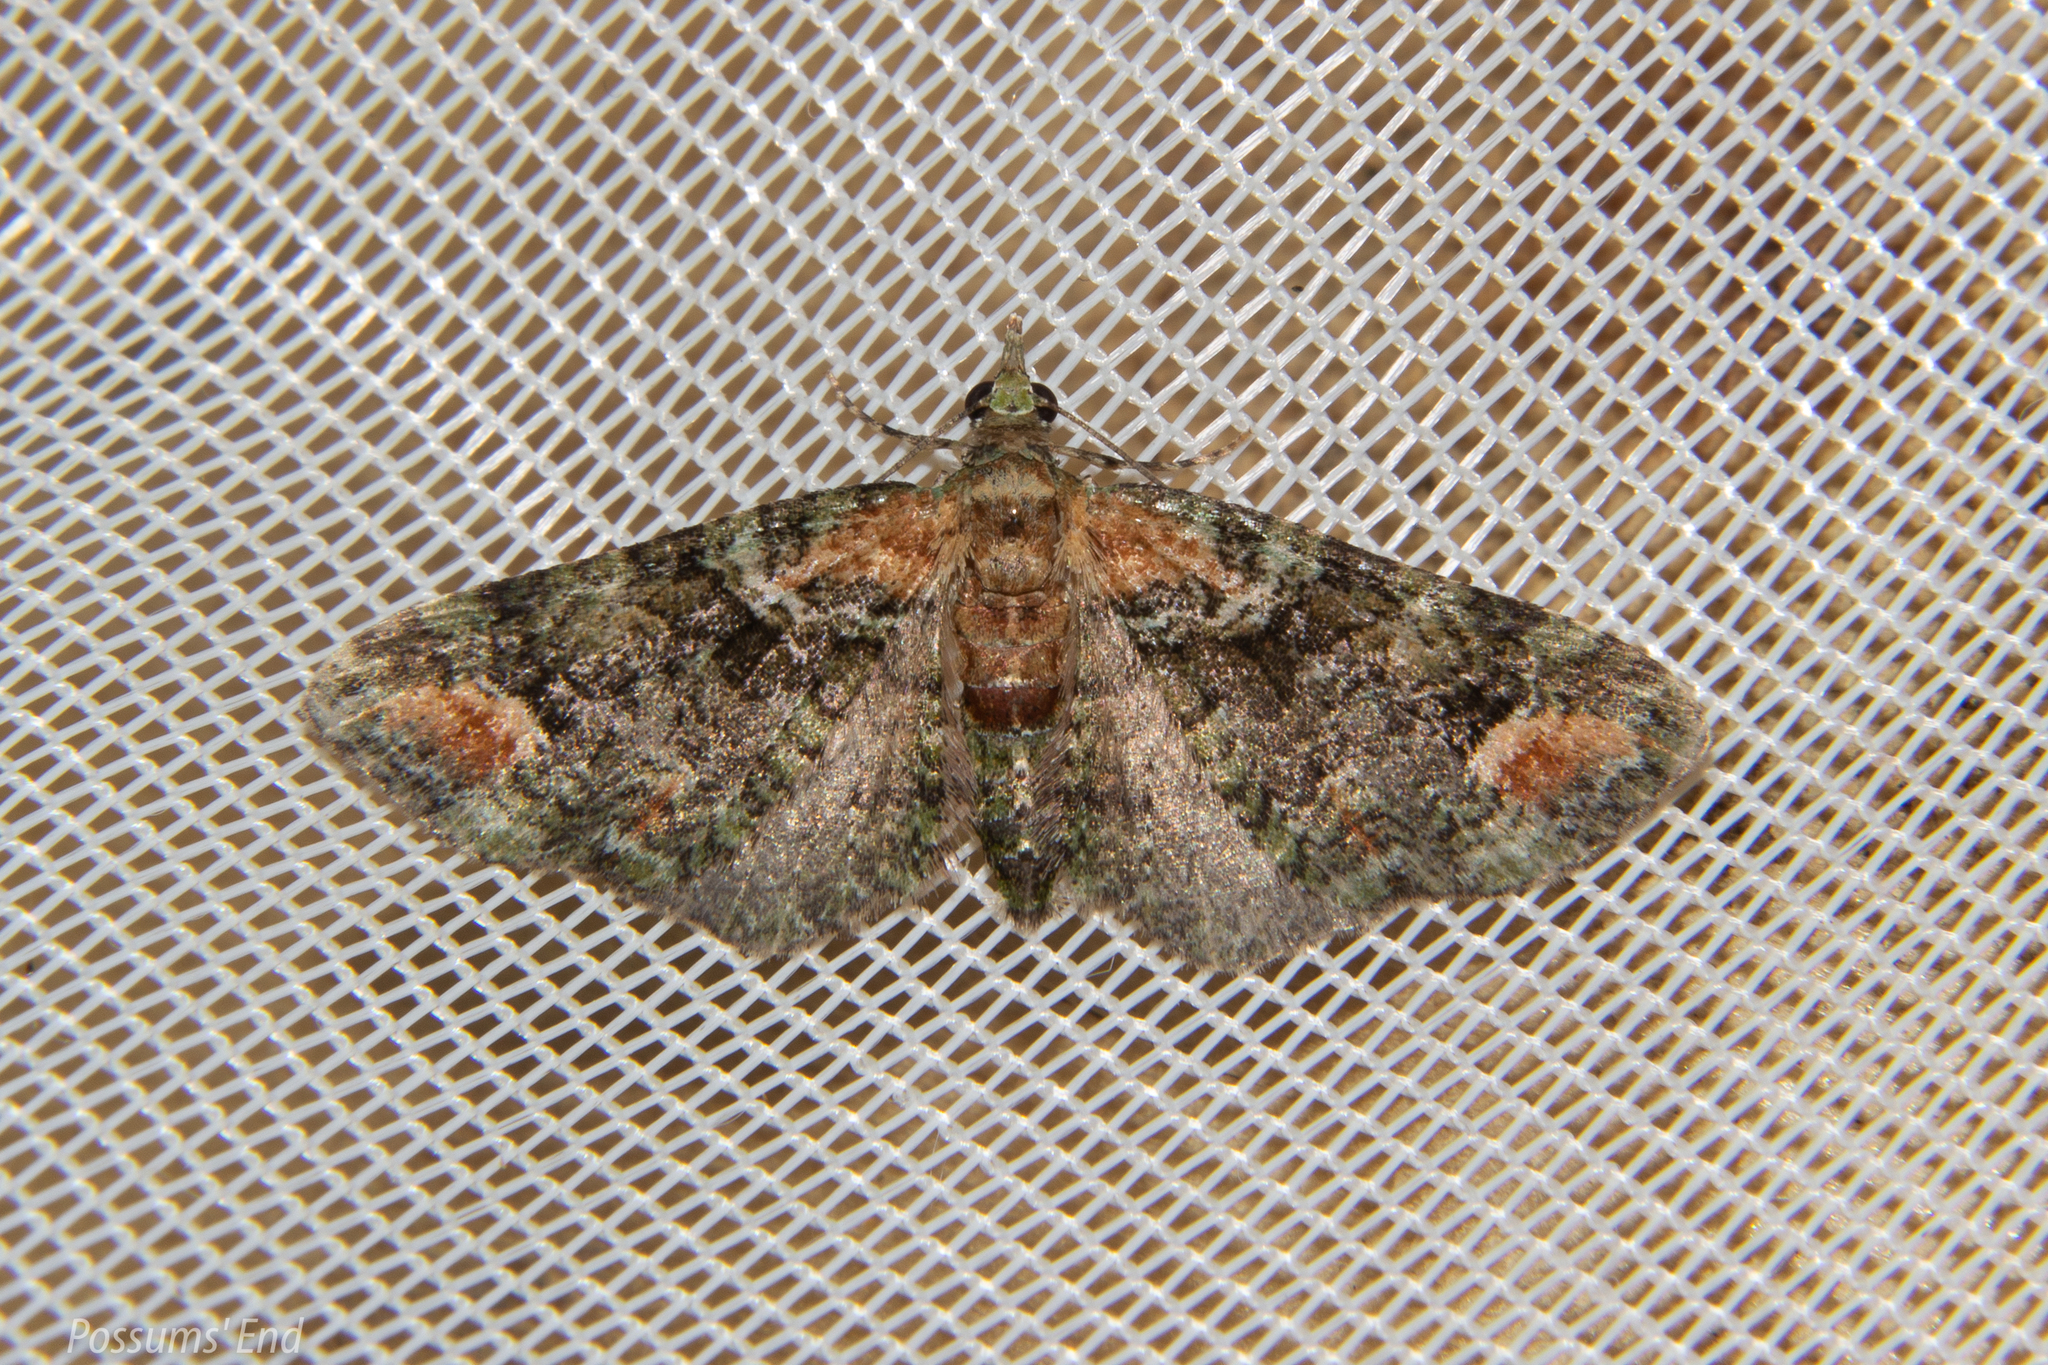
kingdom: Animalia
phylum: Arthropoda
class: Insecta
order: Lepidoptera
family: Geometridae
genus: Idaea
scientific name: Idaea mutanda
